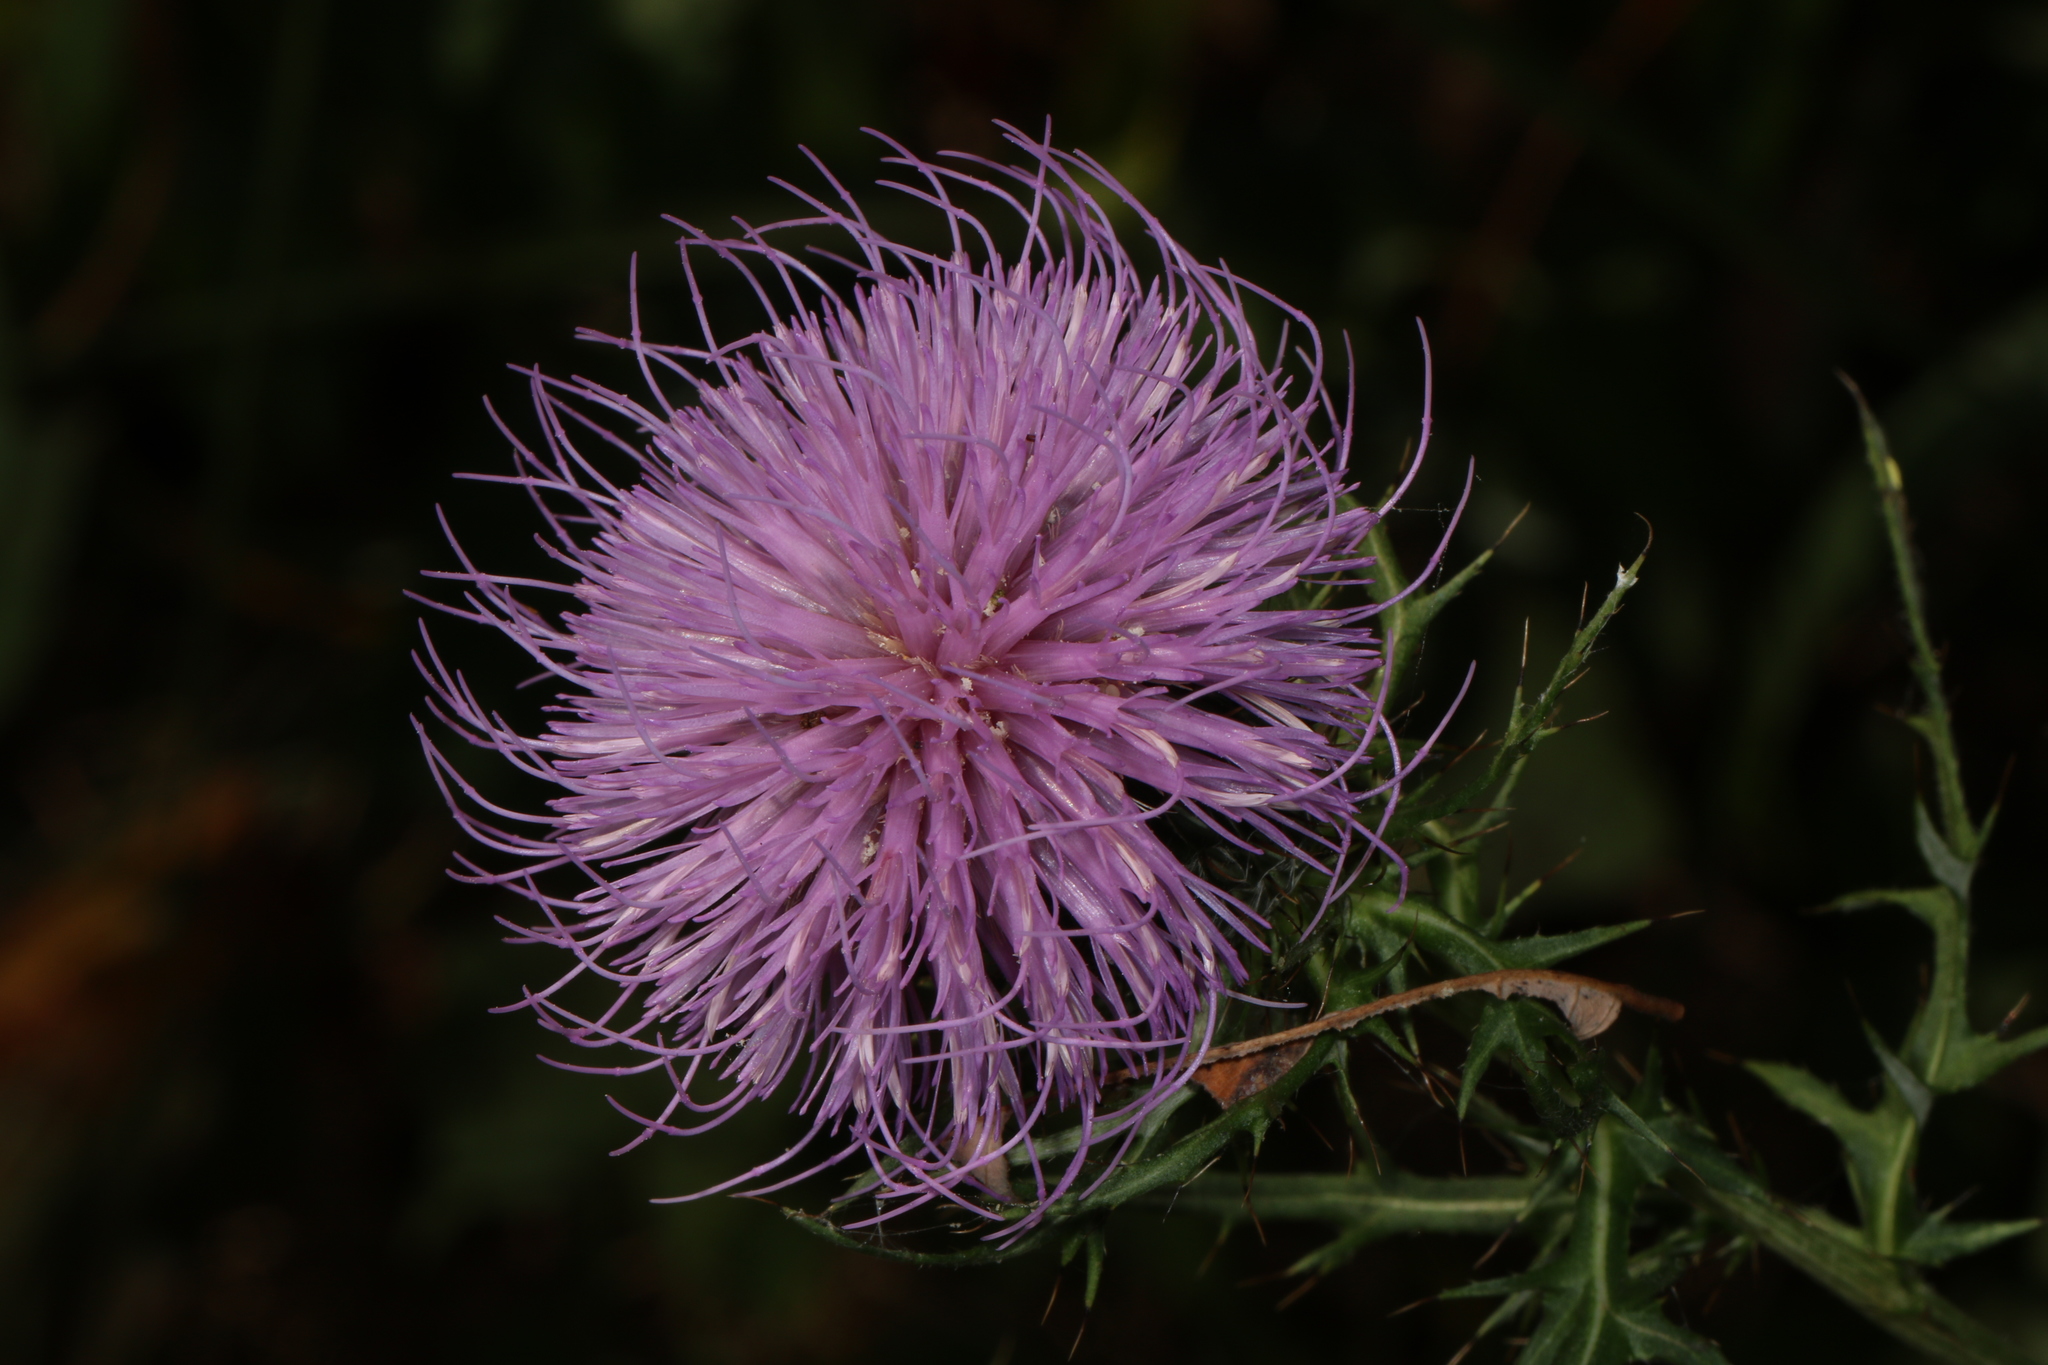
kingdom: Plantae
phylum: Tracheophyta
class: Magnoliopsida
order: Asterales
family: Asteraceae
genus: Cirsium
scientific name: Cirsium discolor
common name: Field thistle
